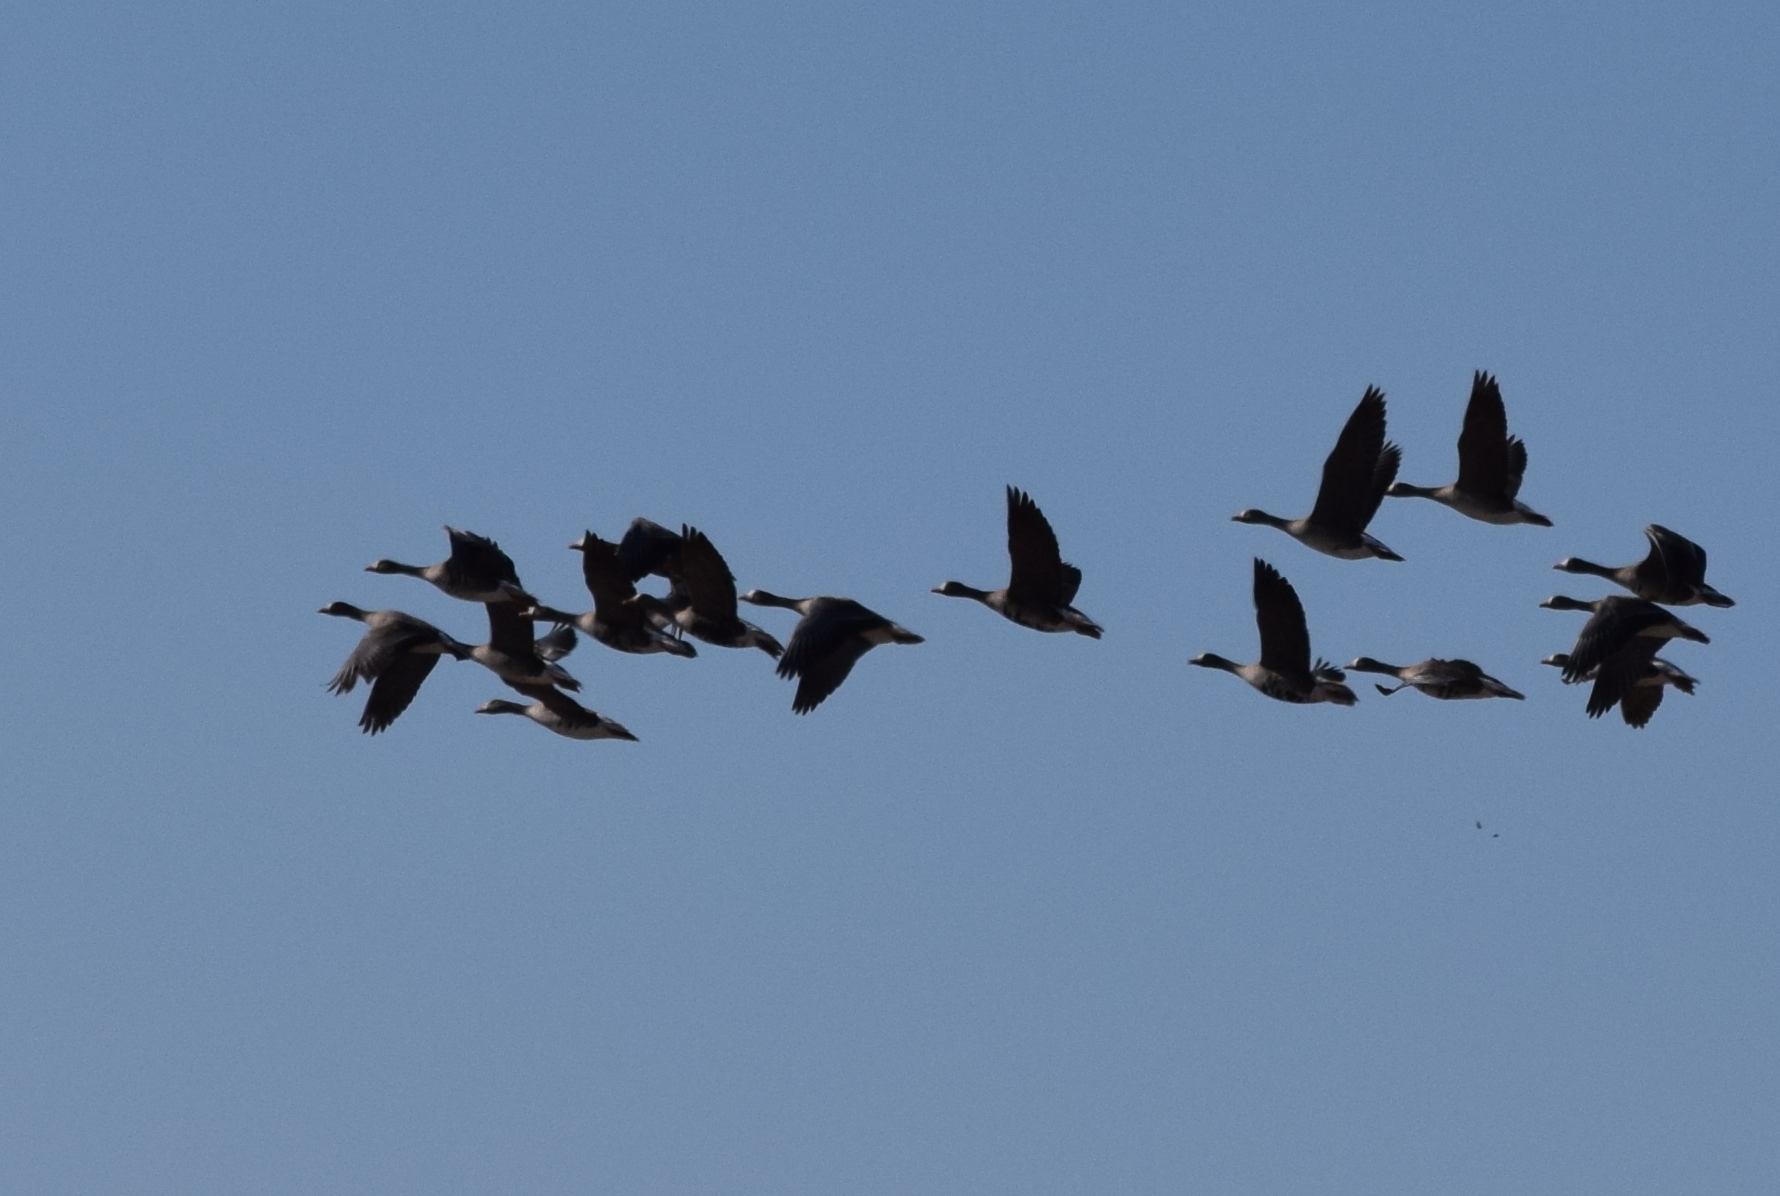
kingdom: Animalia
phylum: Chordata
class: Aves
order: Anseriformes
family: Anatidae
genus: Anser
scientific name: Anser albifrons
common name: Greater white-fronted goose
